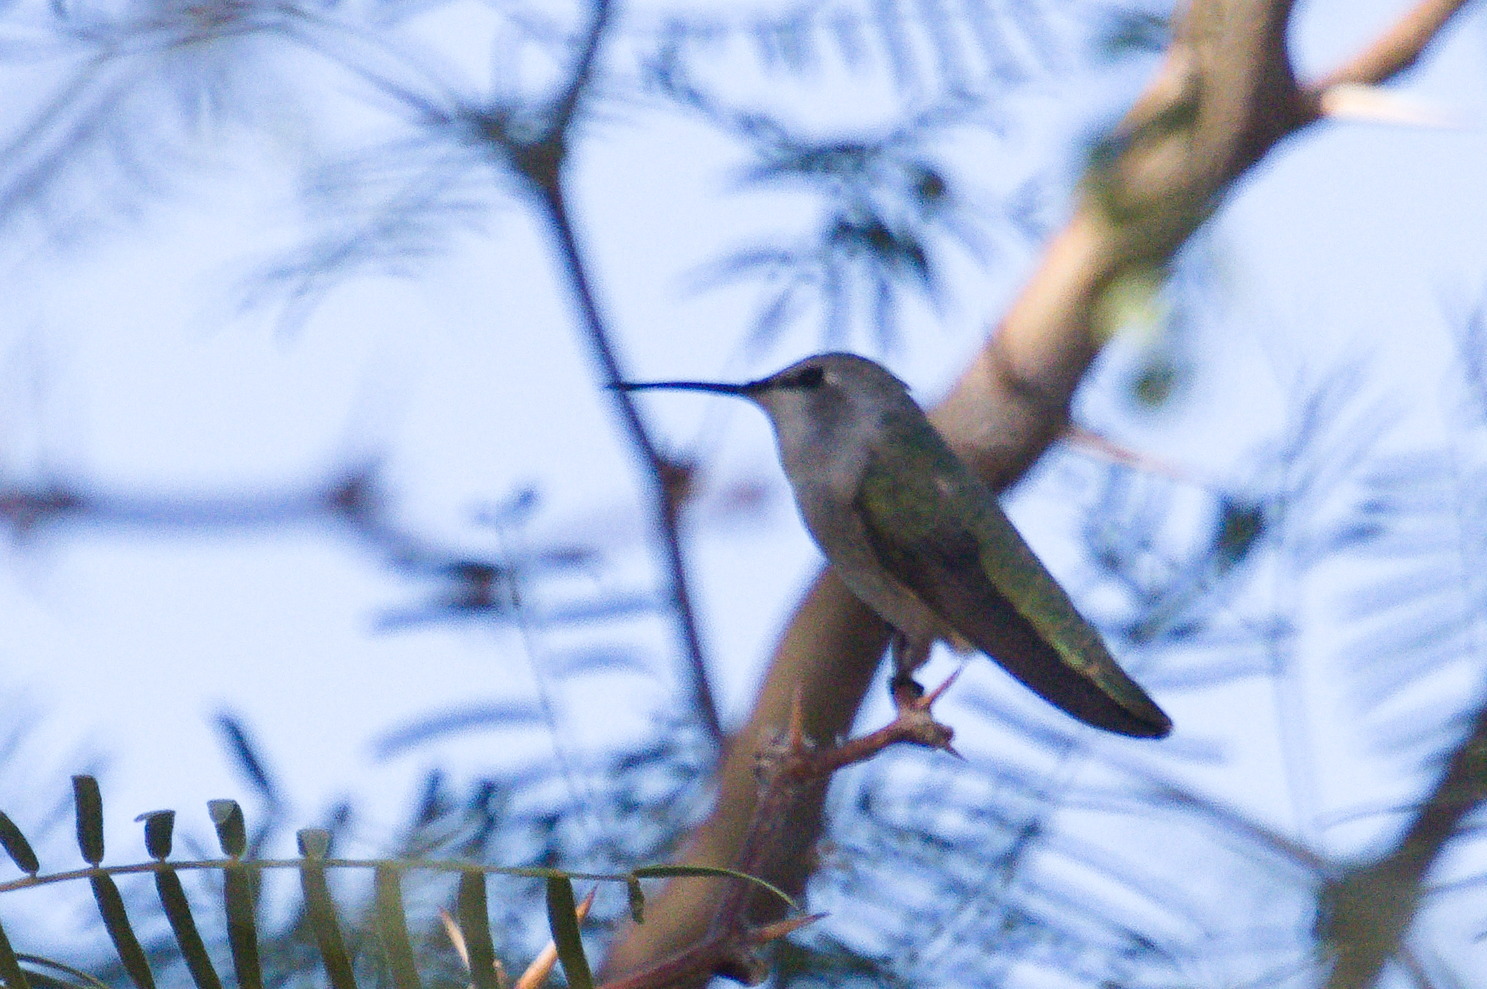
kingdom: Animalia
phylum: Chordata
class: Aves
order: Apodiformes
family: Trochilidae
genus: Calypte
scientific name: Calypte costae
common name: Costa's hummingbird
